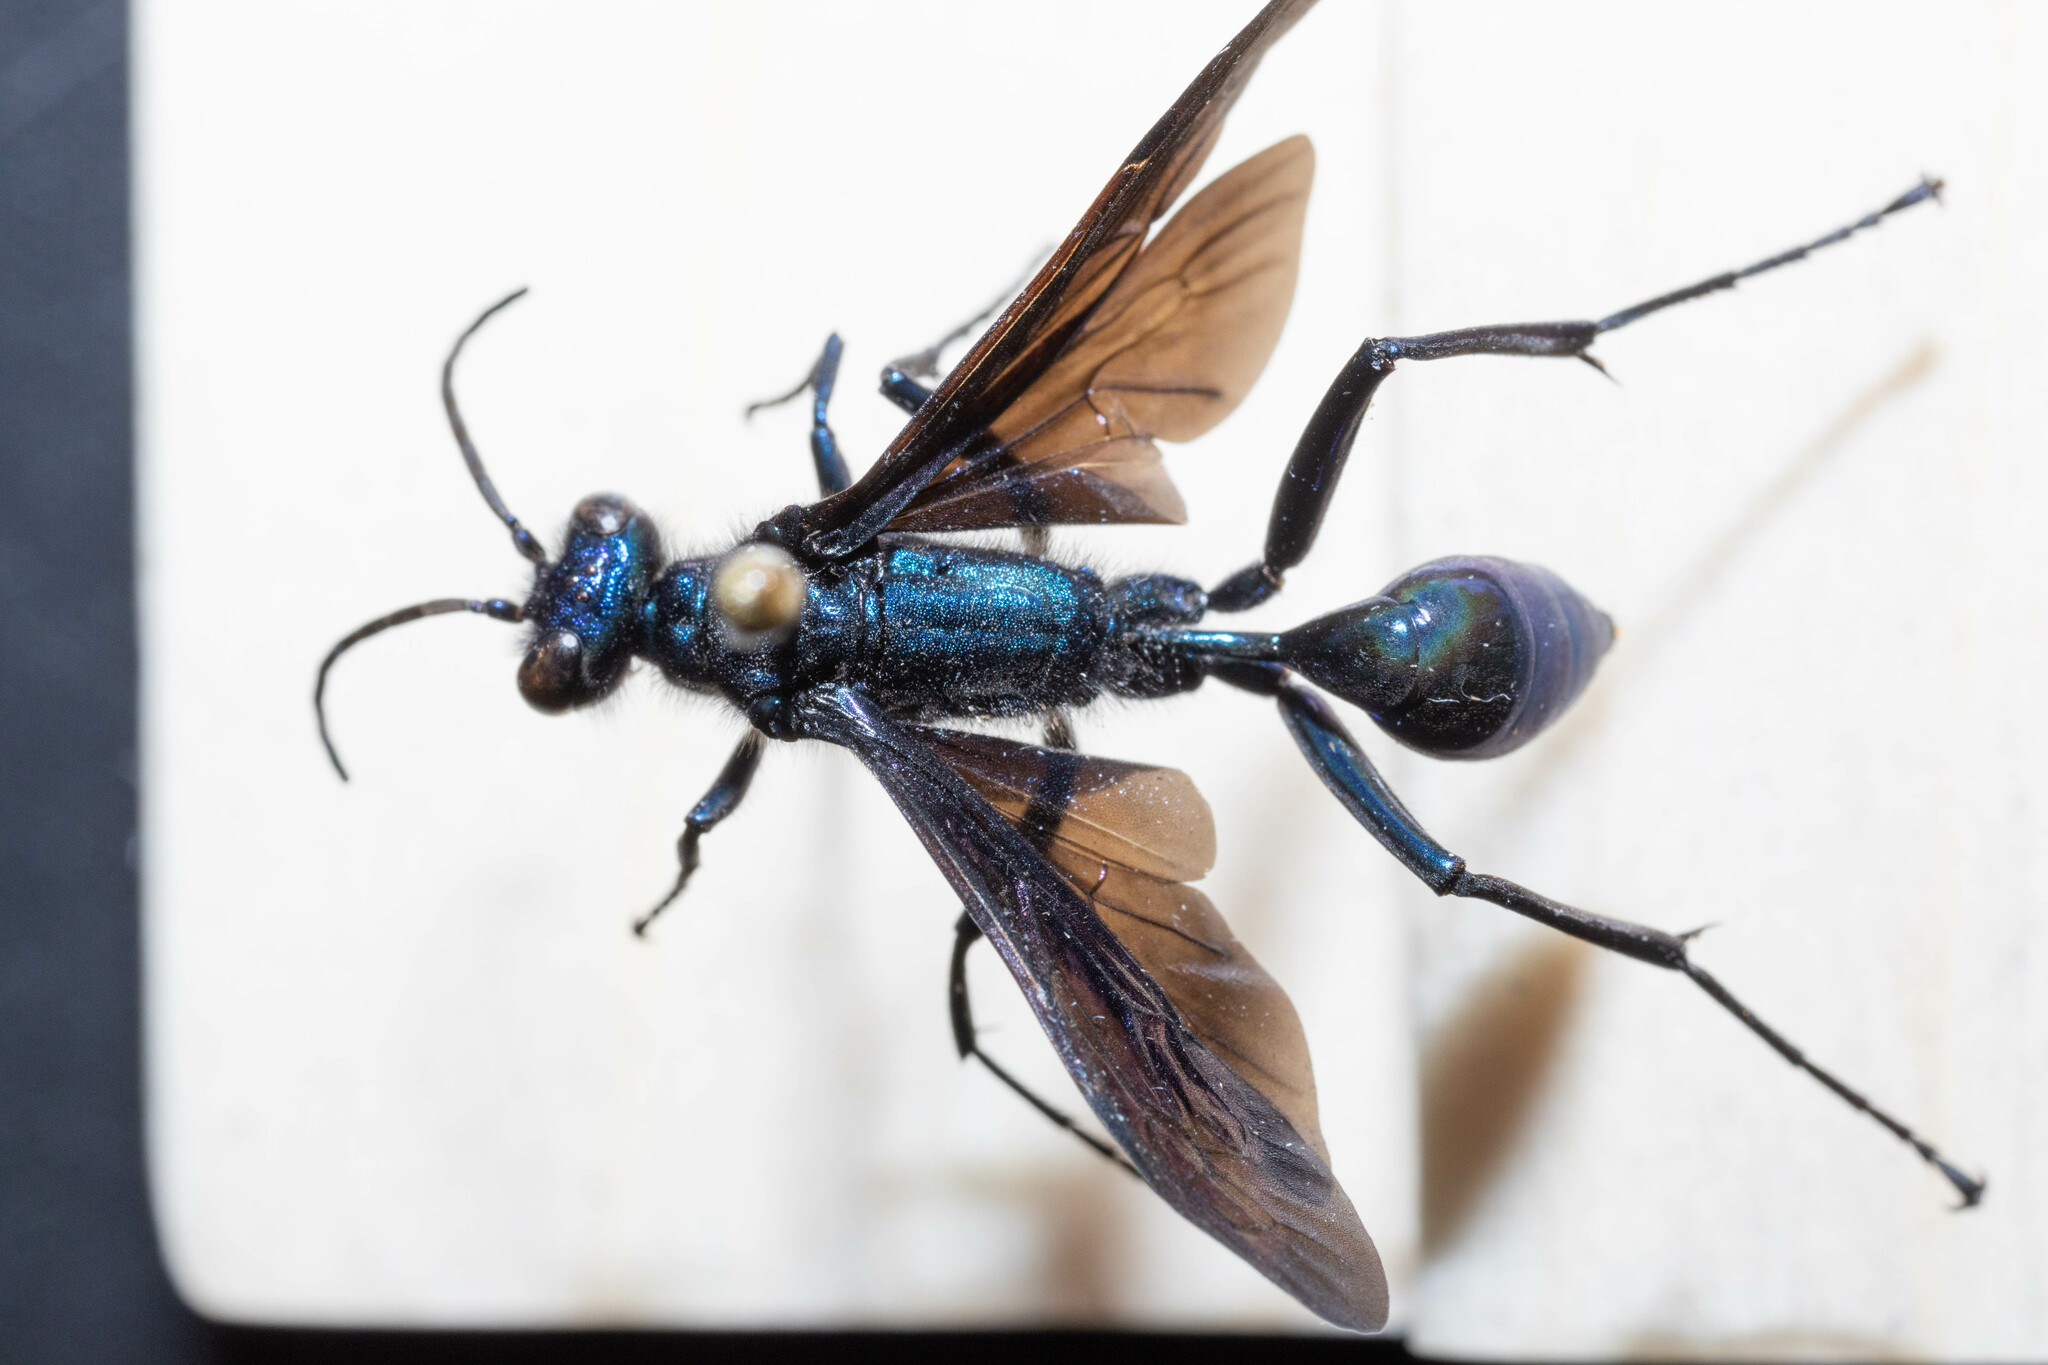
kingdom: Animalia
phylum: Arthropoda
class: Insecta
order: Hymenoptera
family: Sphecidae
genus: Chalybion
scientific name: Chalybion californicum
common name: Mud dauber
